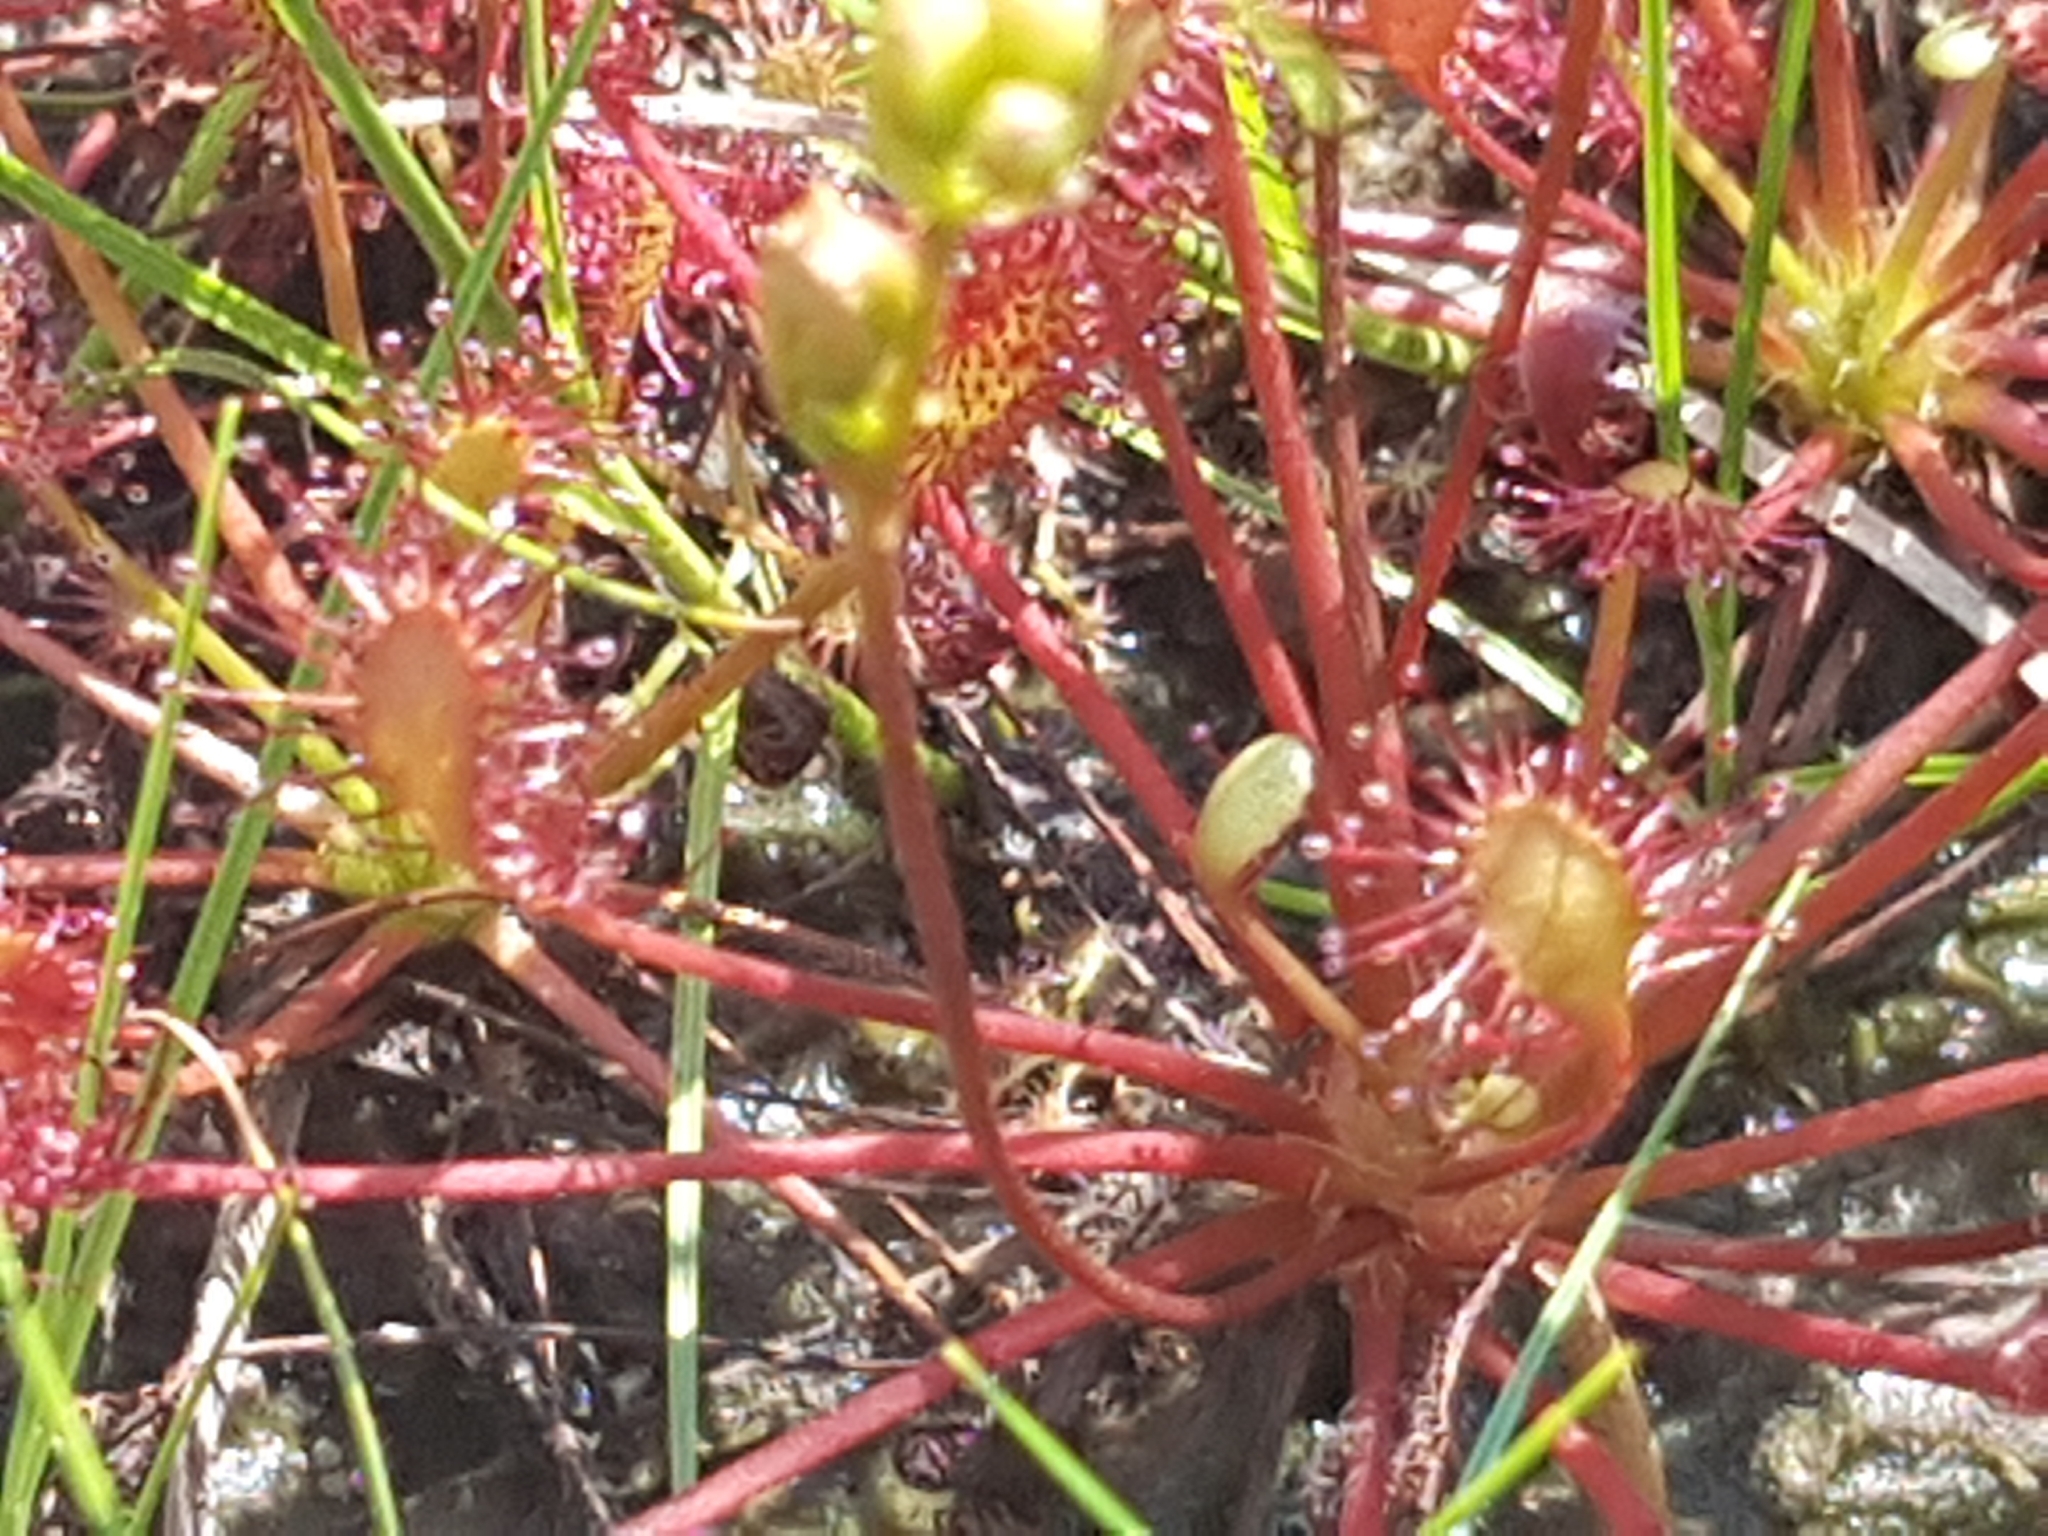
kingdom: Plantae
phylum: Tracheophyta
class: Magnoliopsida
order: Caryophyllales
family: Droseraceae
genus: Drosera
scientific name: Drosera intermedia
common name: Oblong-leaved sundew
